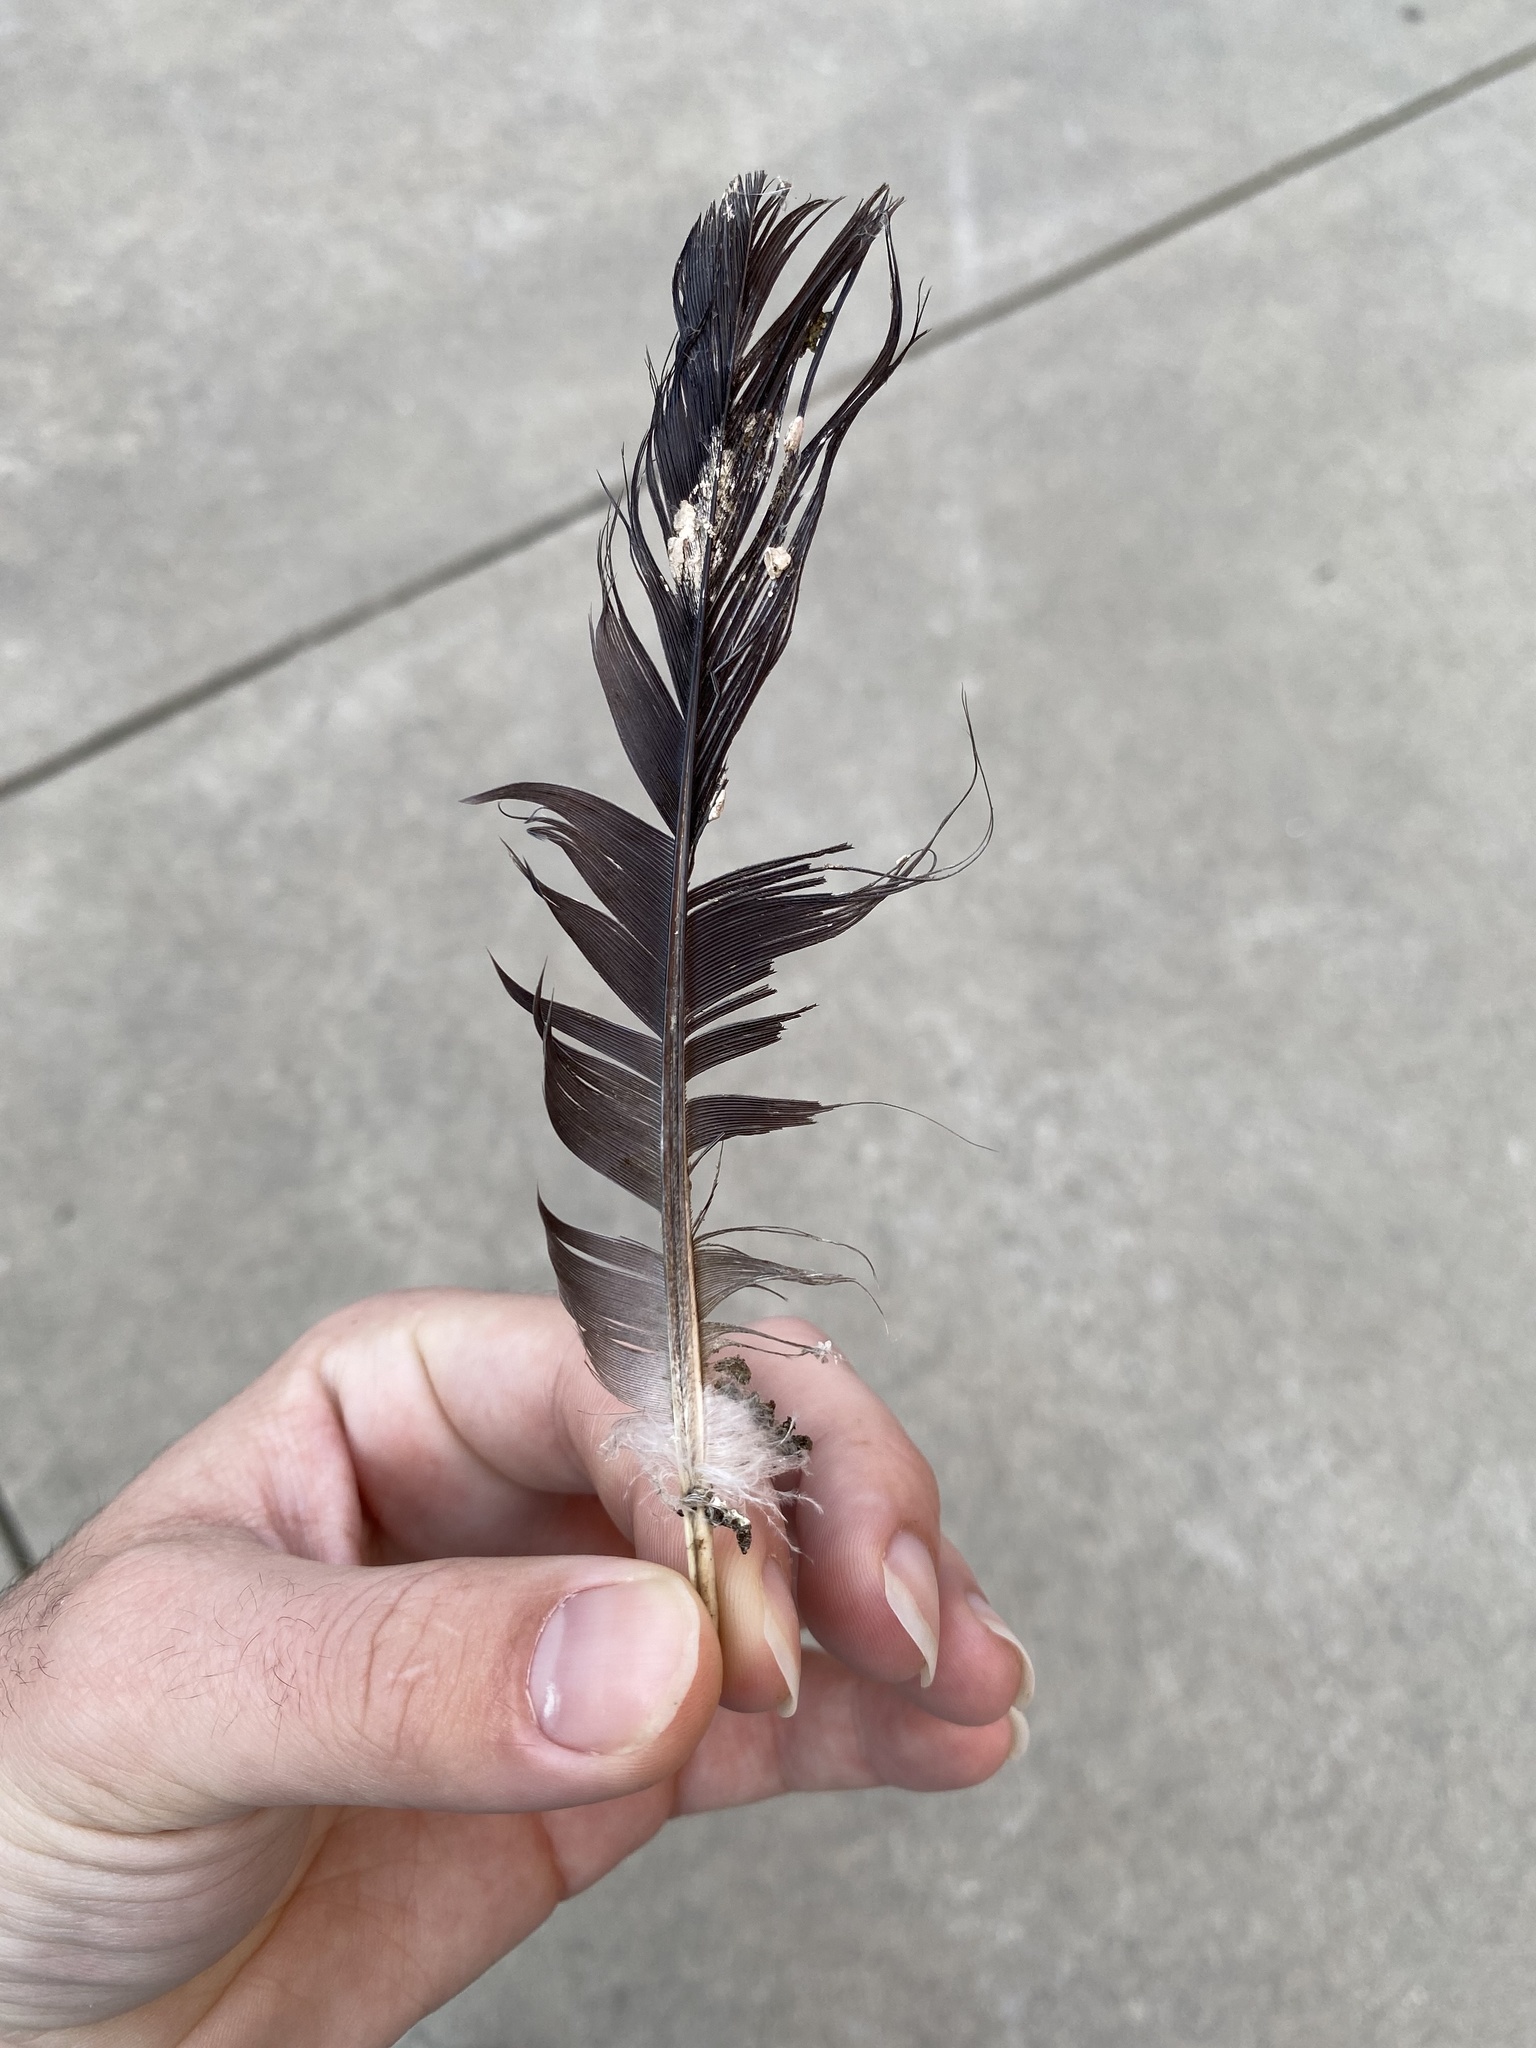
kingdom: Animalia
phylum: Chordata
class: Aves
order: Columbiformes
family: Columbidae
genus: Columba
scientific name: Columba livia
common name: Rock pigeon
